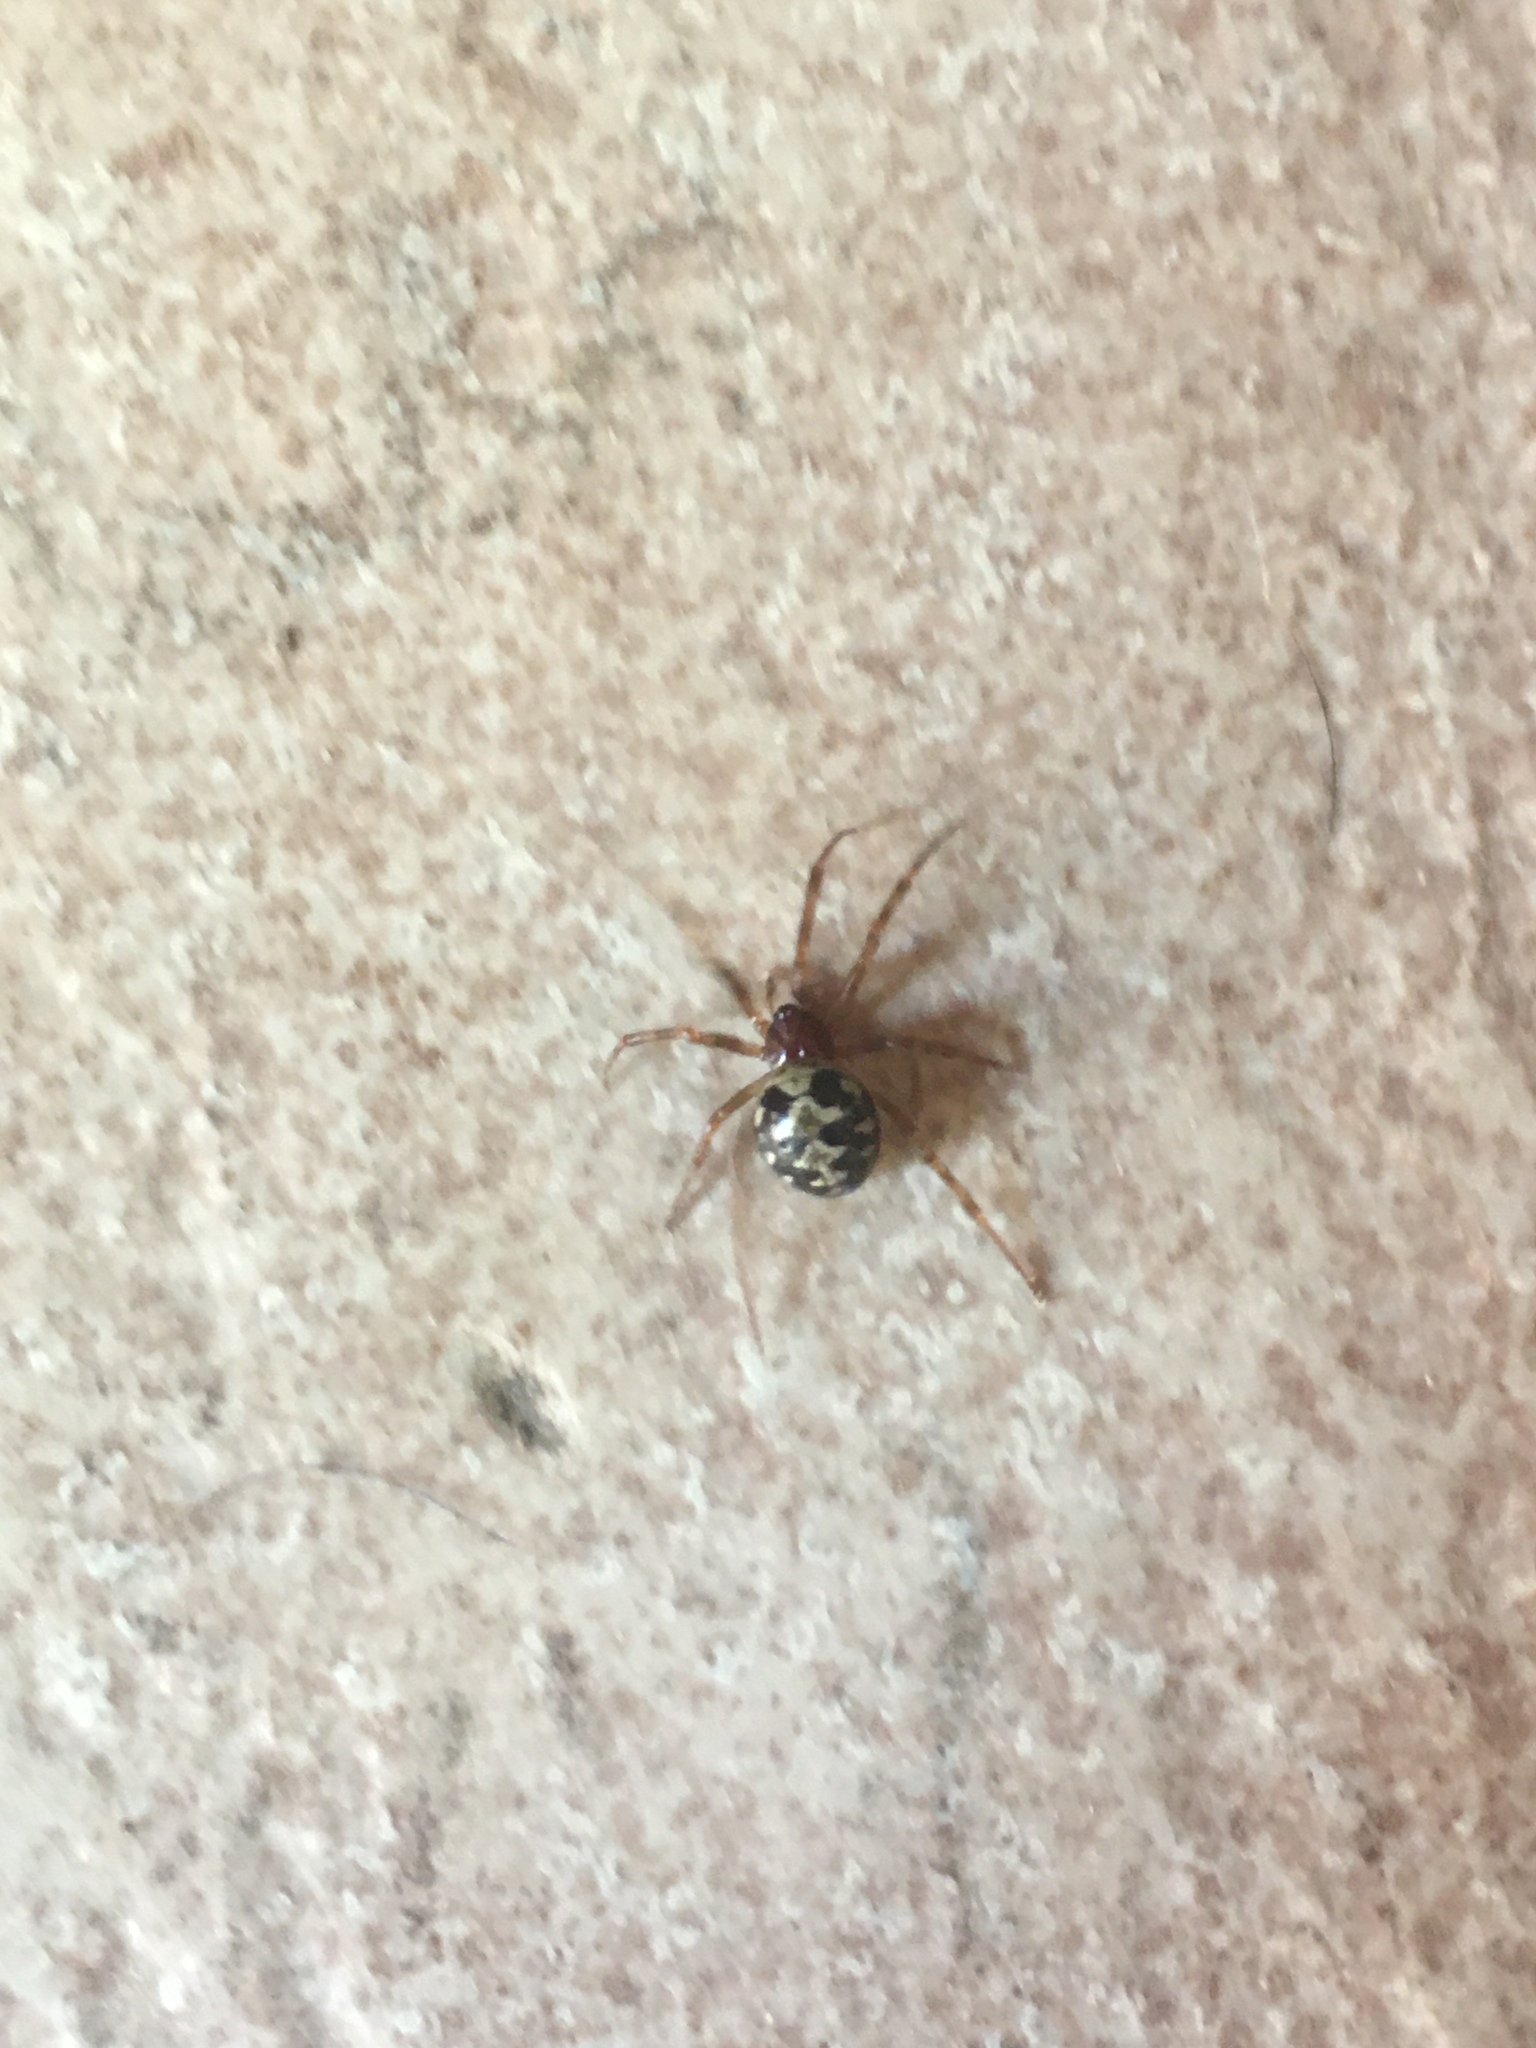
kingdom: Animalia
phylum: Arthropoda
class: Arachnida
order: Araneae
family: Theridiidae
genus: Steatoda
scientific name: Steatoda triangulosa
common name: Triangulate bud spider
